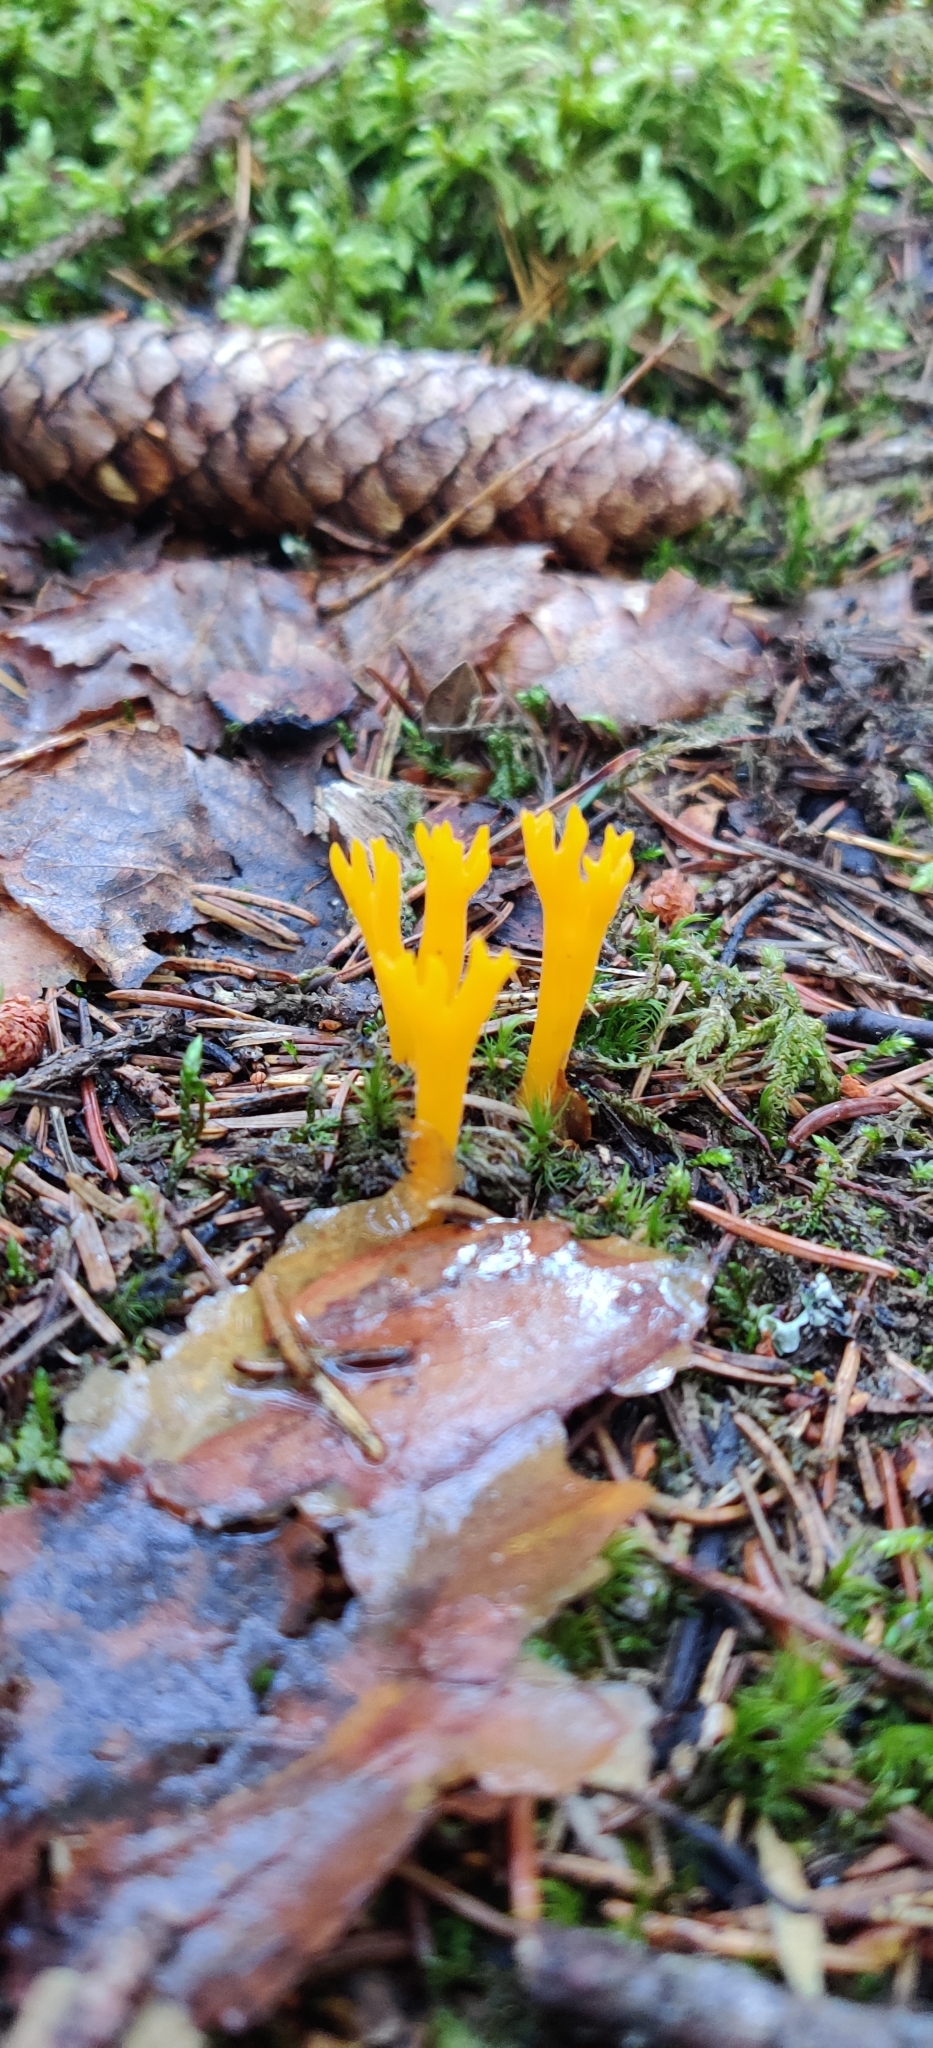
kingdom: Fungi
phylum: Basidiomycota
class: Dacrymycetes
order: Dacrymycetales
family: Dacrymycetaceae
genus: Calocera
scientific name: Calocera viscosa
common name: Yellow stagshorn
